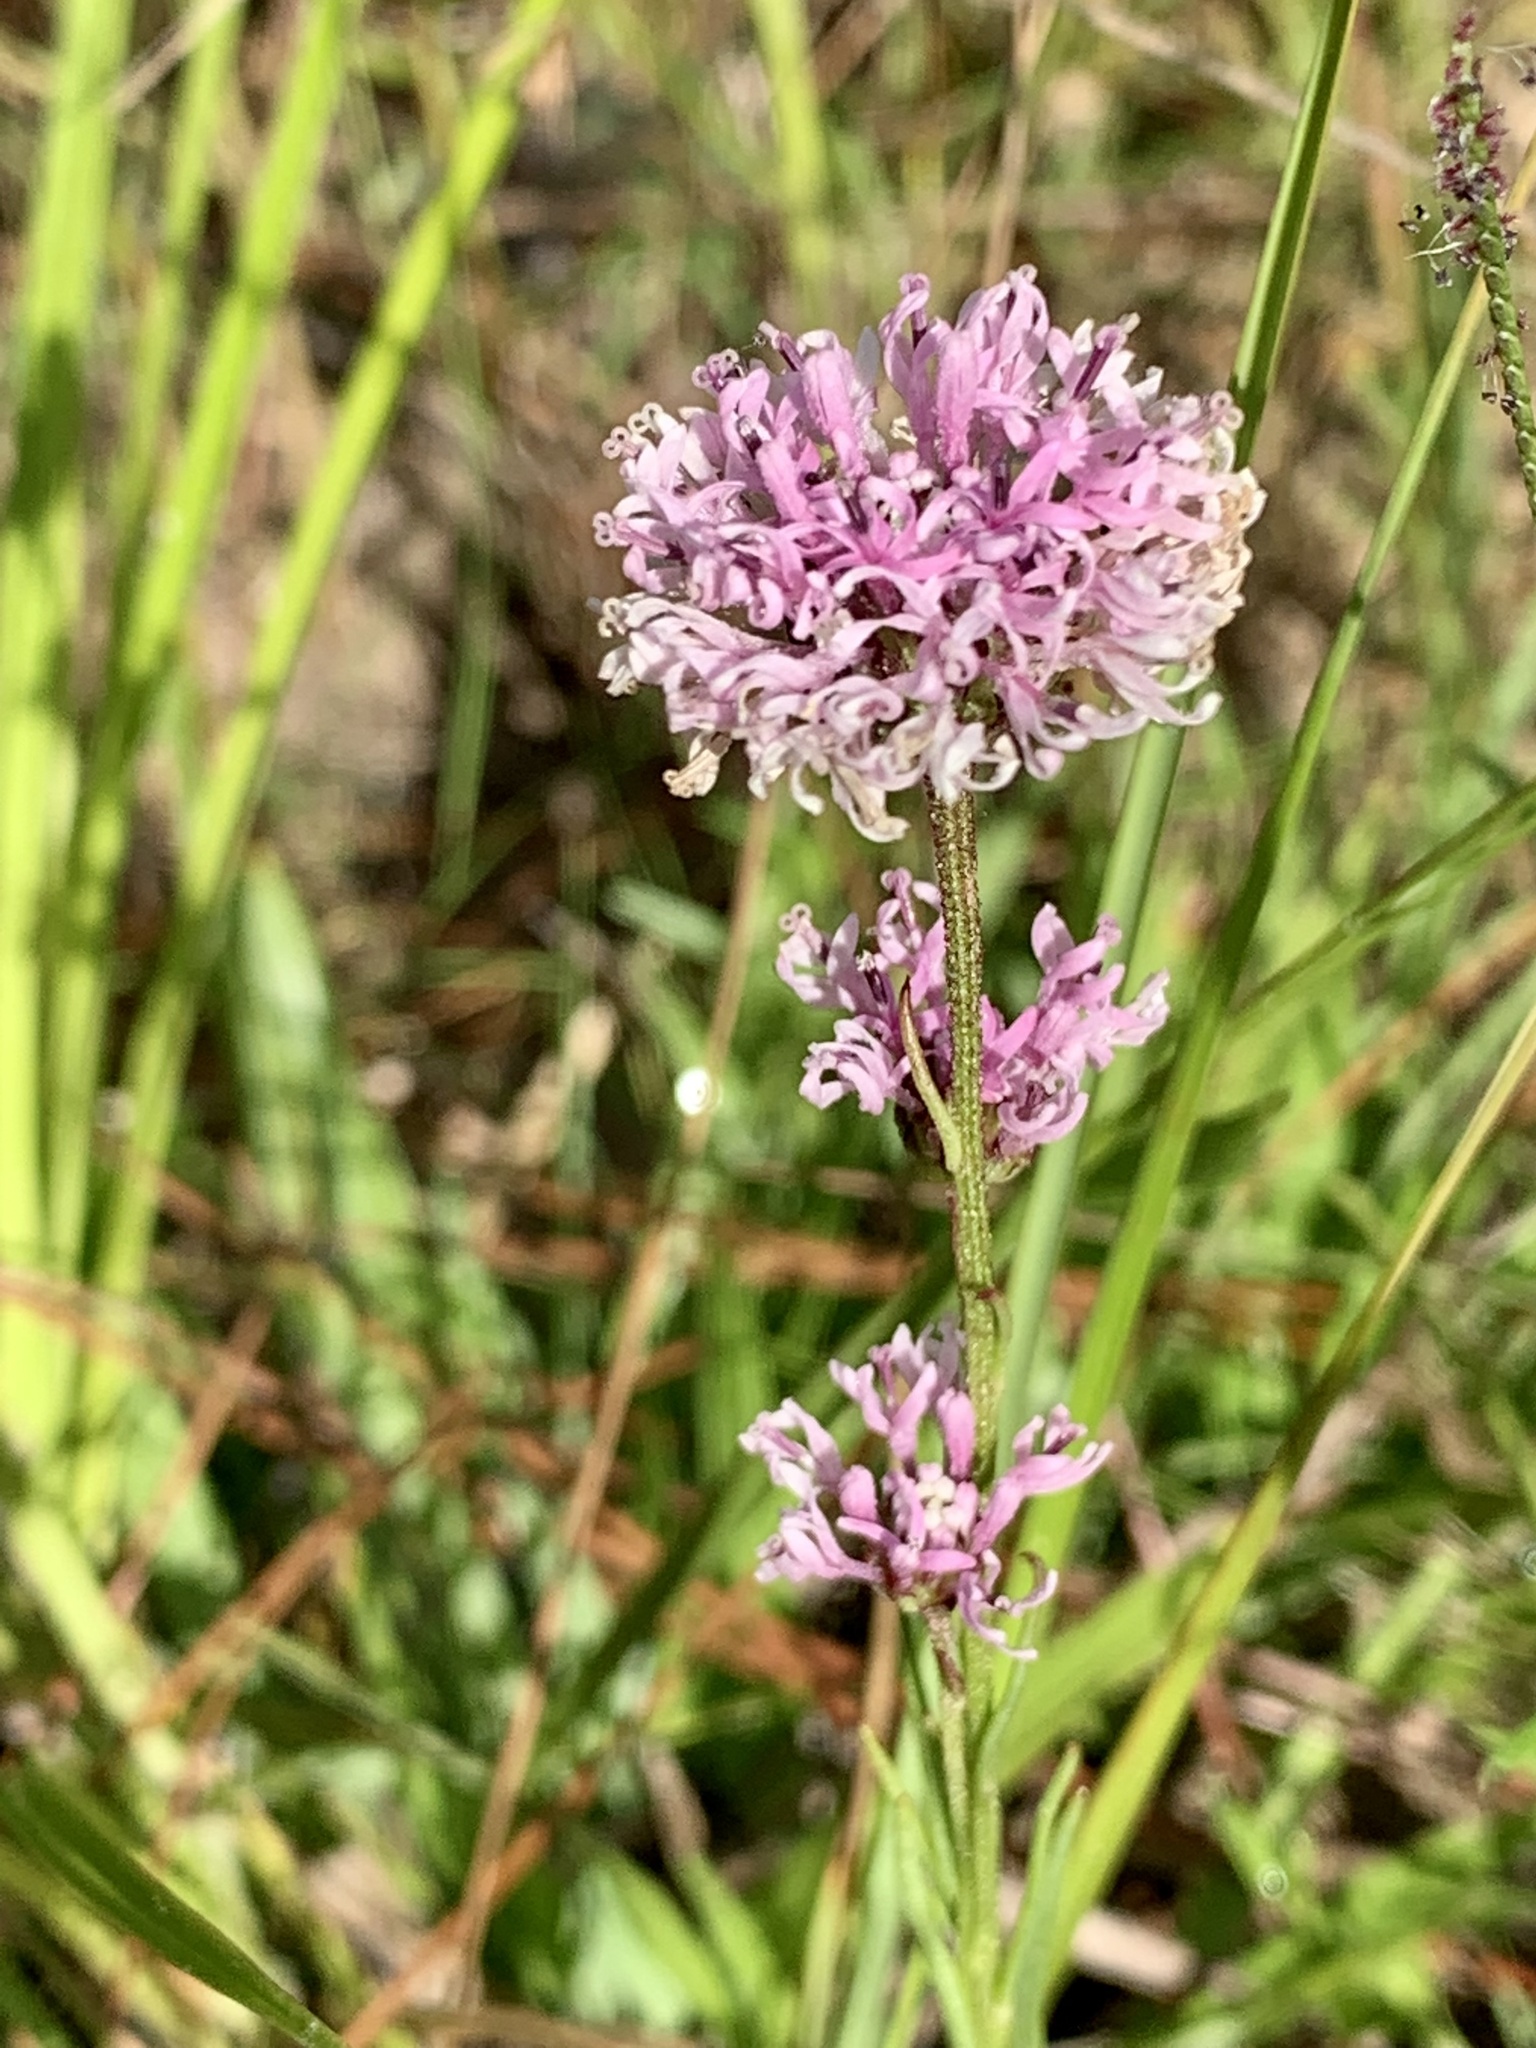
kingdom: Plantae
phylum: Tracheophyta
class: Magnoliopsida
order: Asterales
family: Asteraceae
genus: Marshallia
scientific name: Marshallia graminifolia
